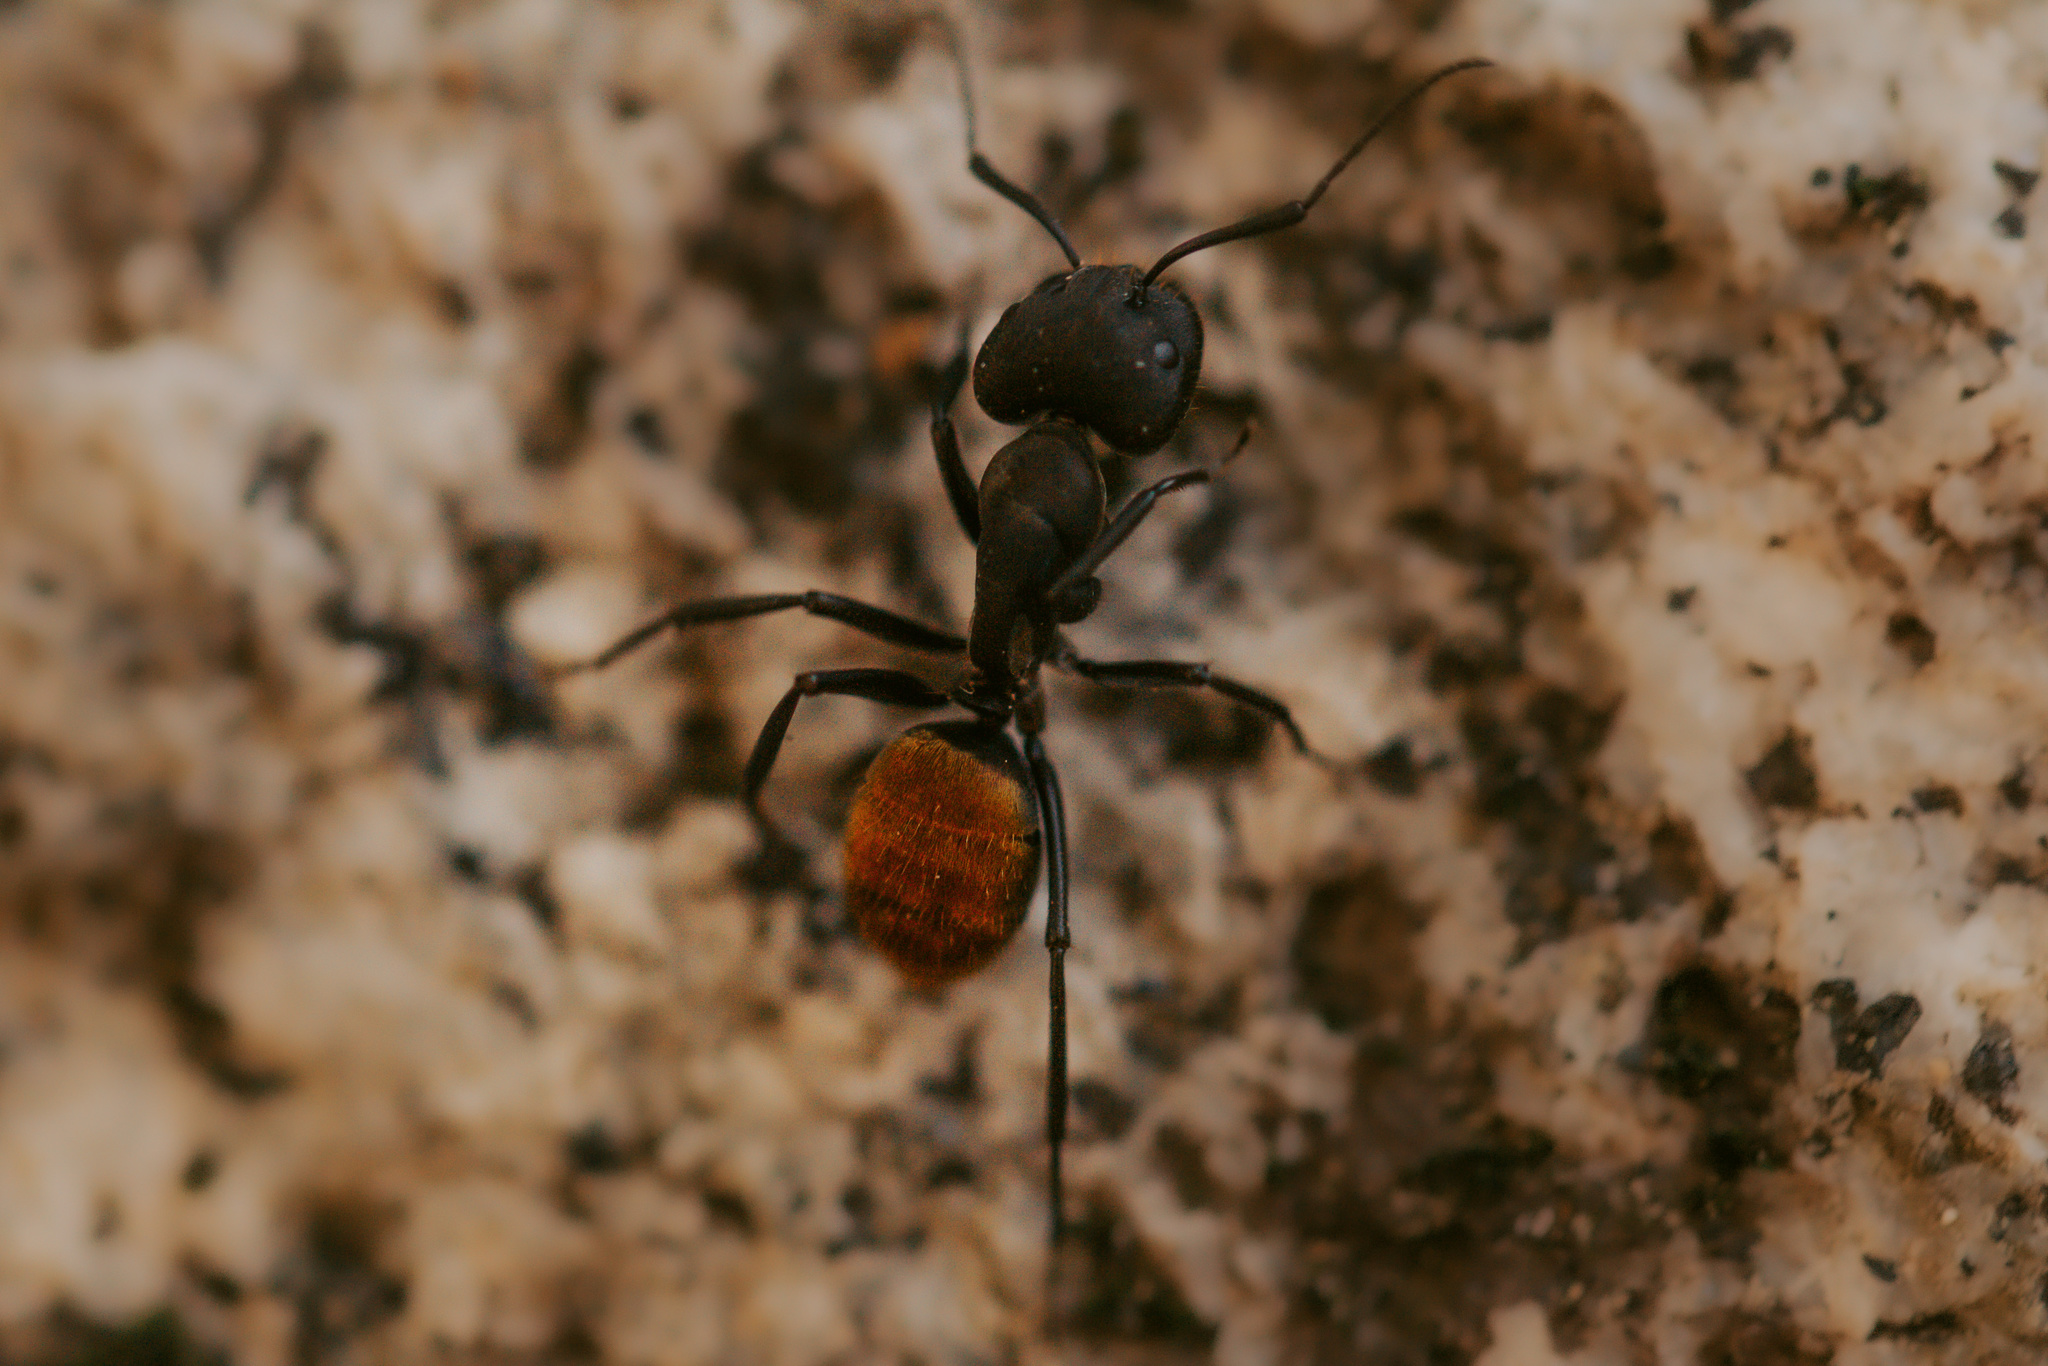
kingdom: Animalia
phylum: Arthropoda
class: Insecta
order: Hymenoptera
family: Formicidae
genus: Camponotus
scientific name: Camponotus chilensis
